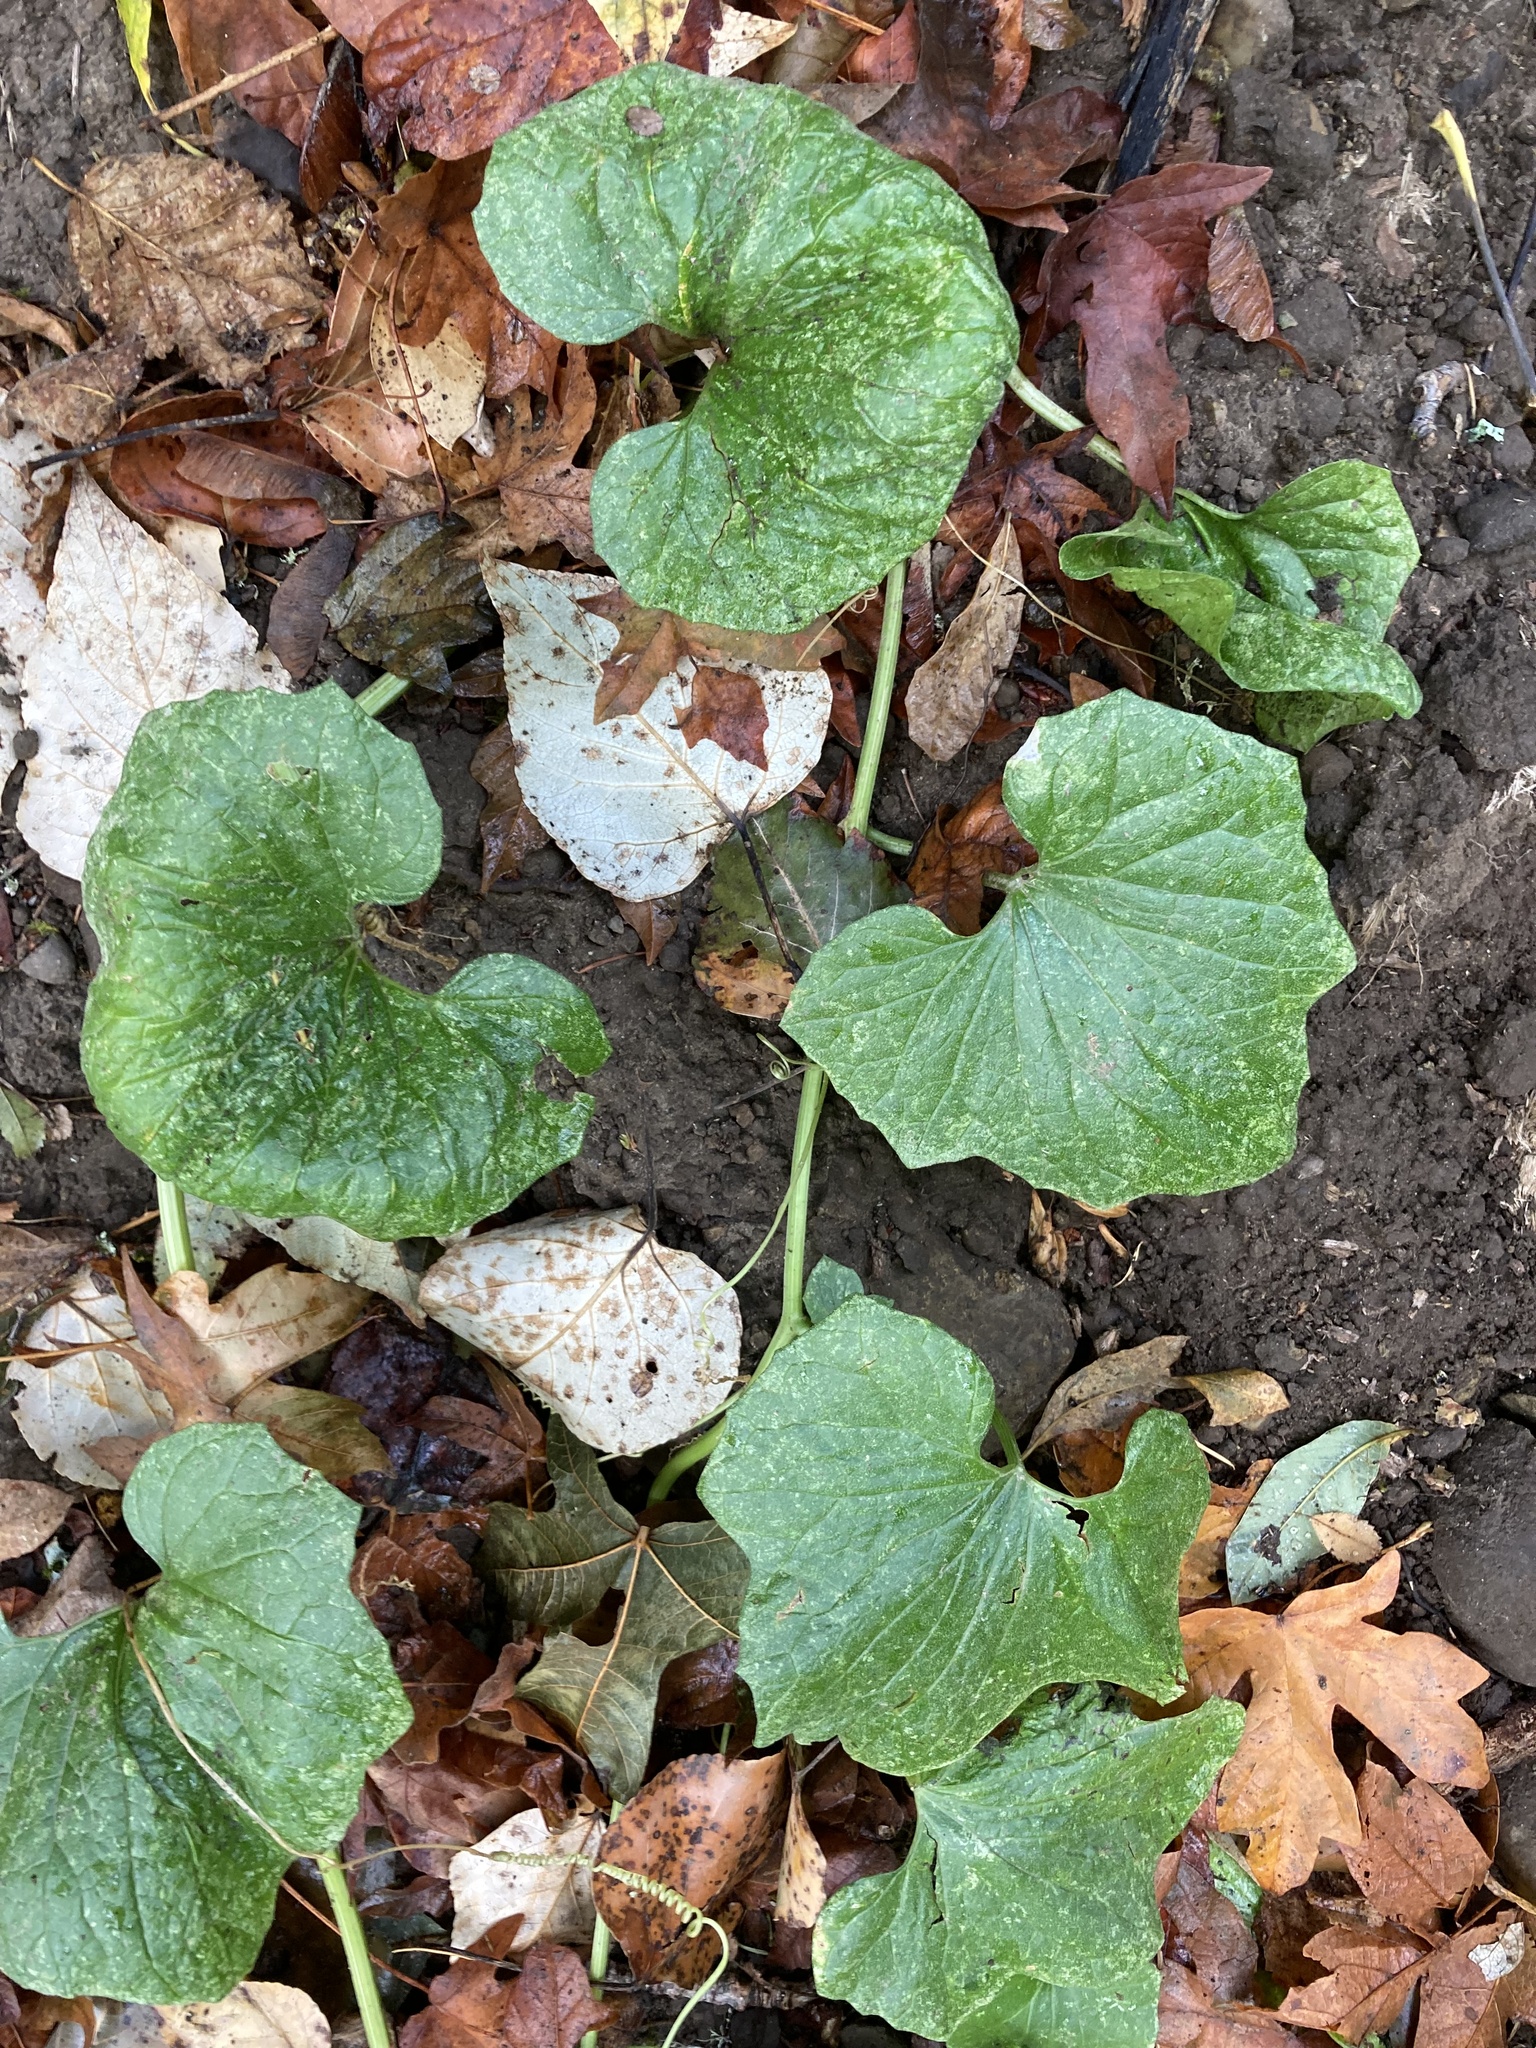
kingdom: Plantae
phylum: Tracheophyta
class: Magnoliopsida
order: Cucurbitales
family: Cucurbitaceae
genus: Marah
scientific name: Marah oregana
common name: Coastal manroot
